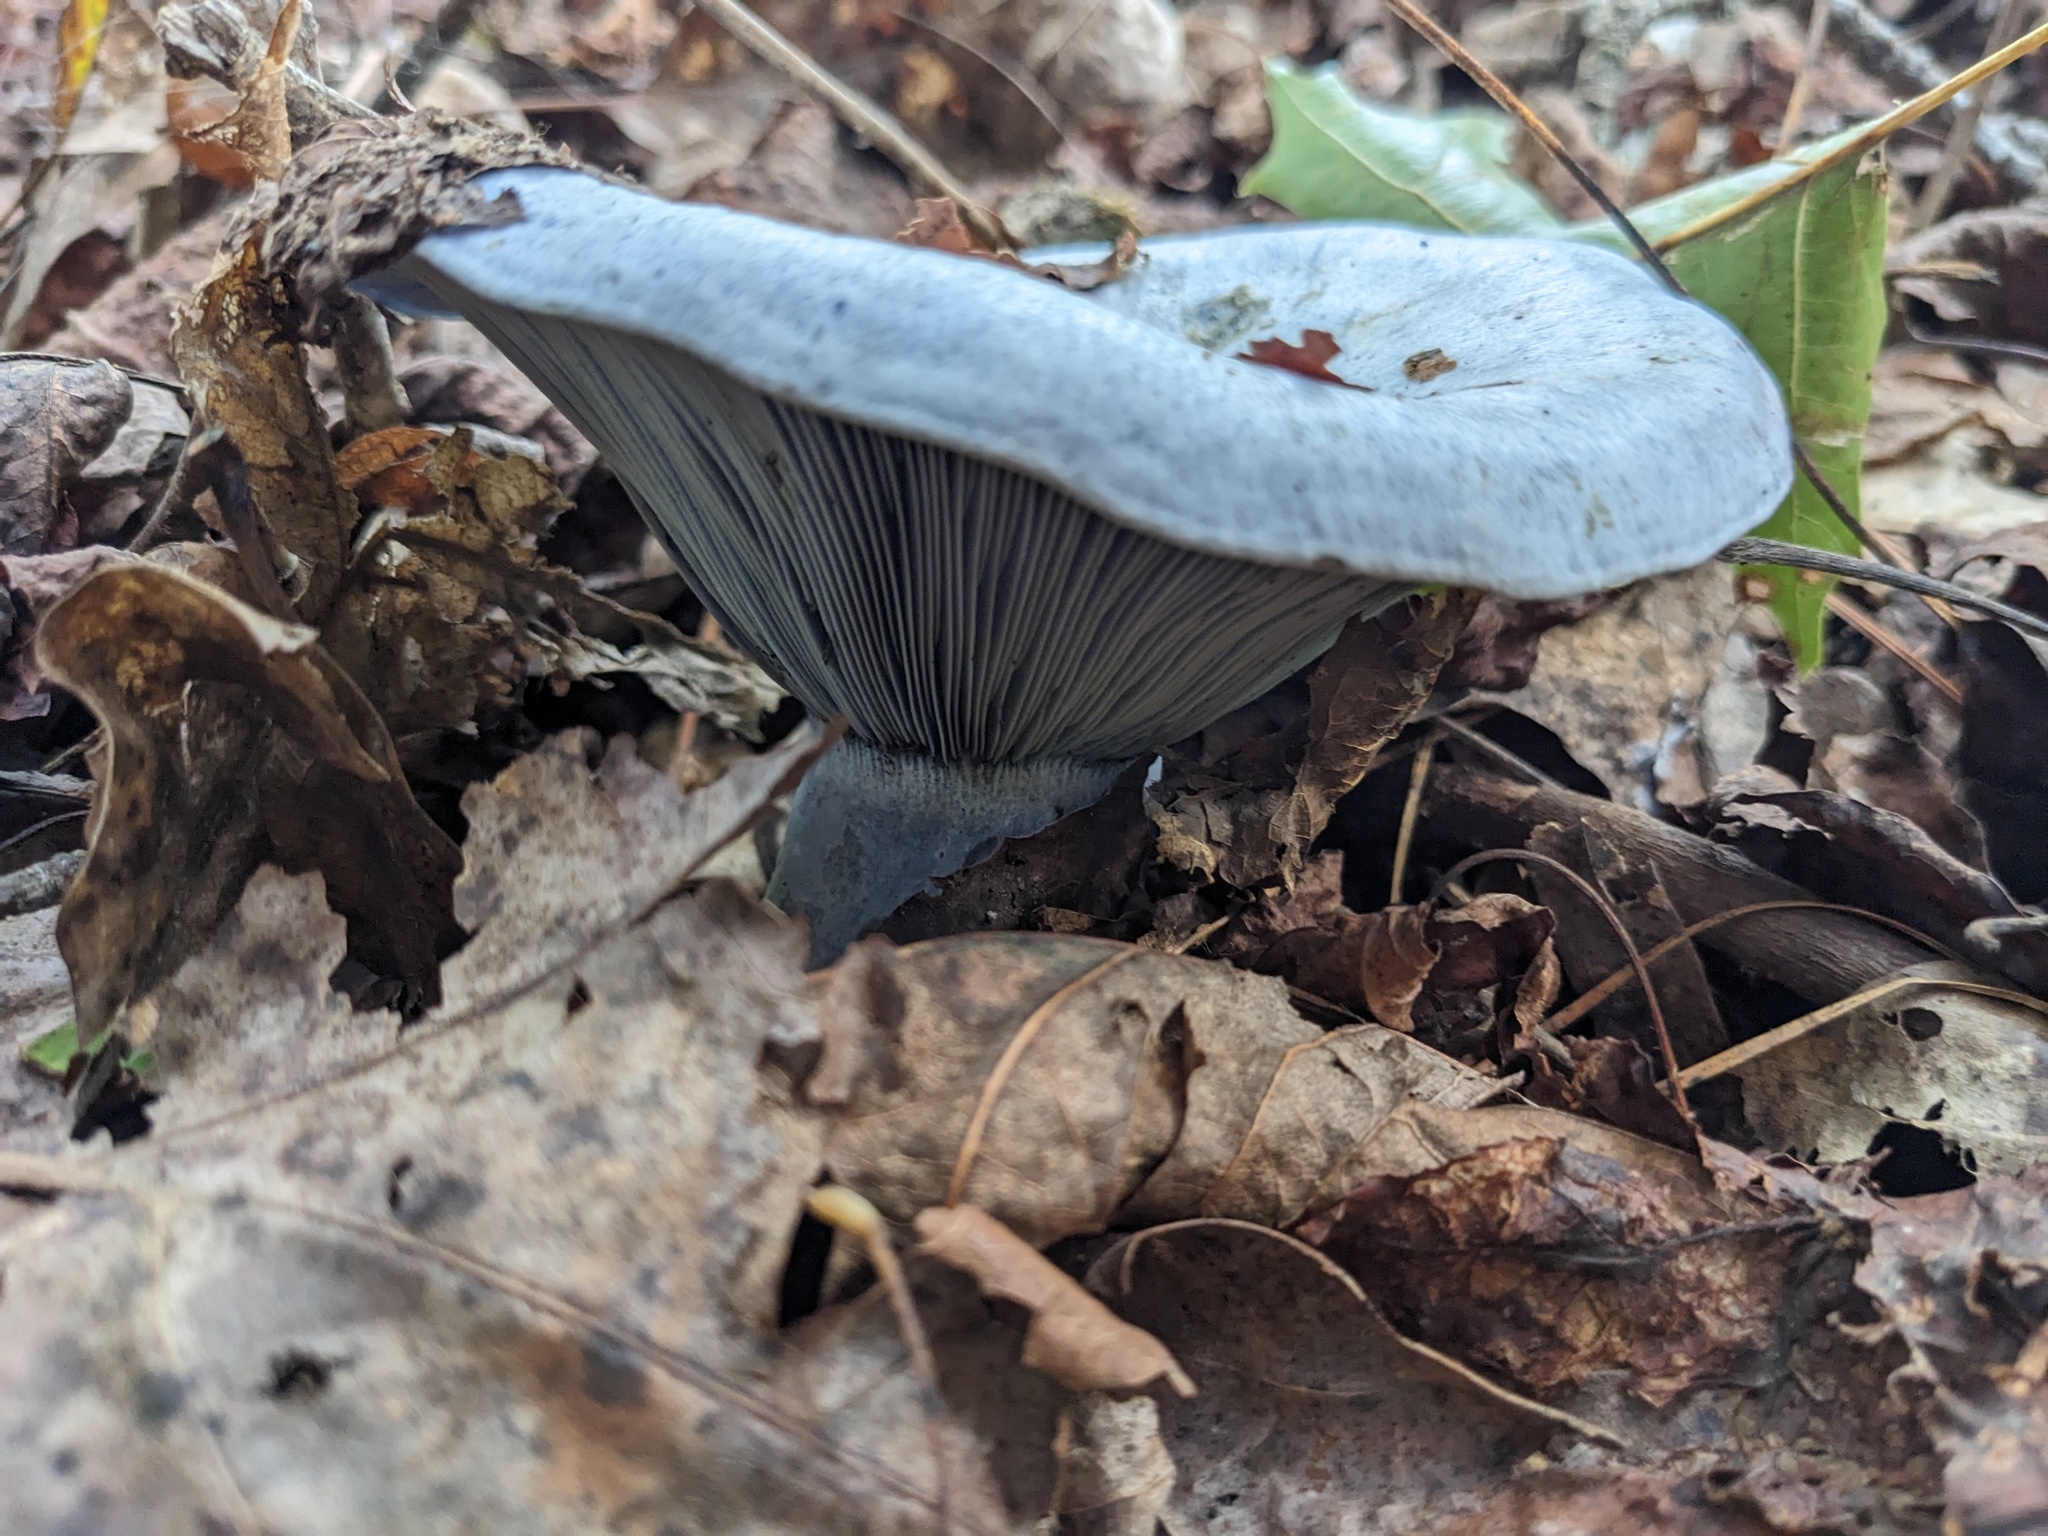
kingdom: Fungi
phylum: Basidiomycota
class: Agaricomycetes
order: Russulales
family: Russulaceae
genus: Lactarius
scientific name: Lactarius indigo
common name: Indigo milk cap
